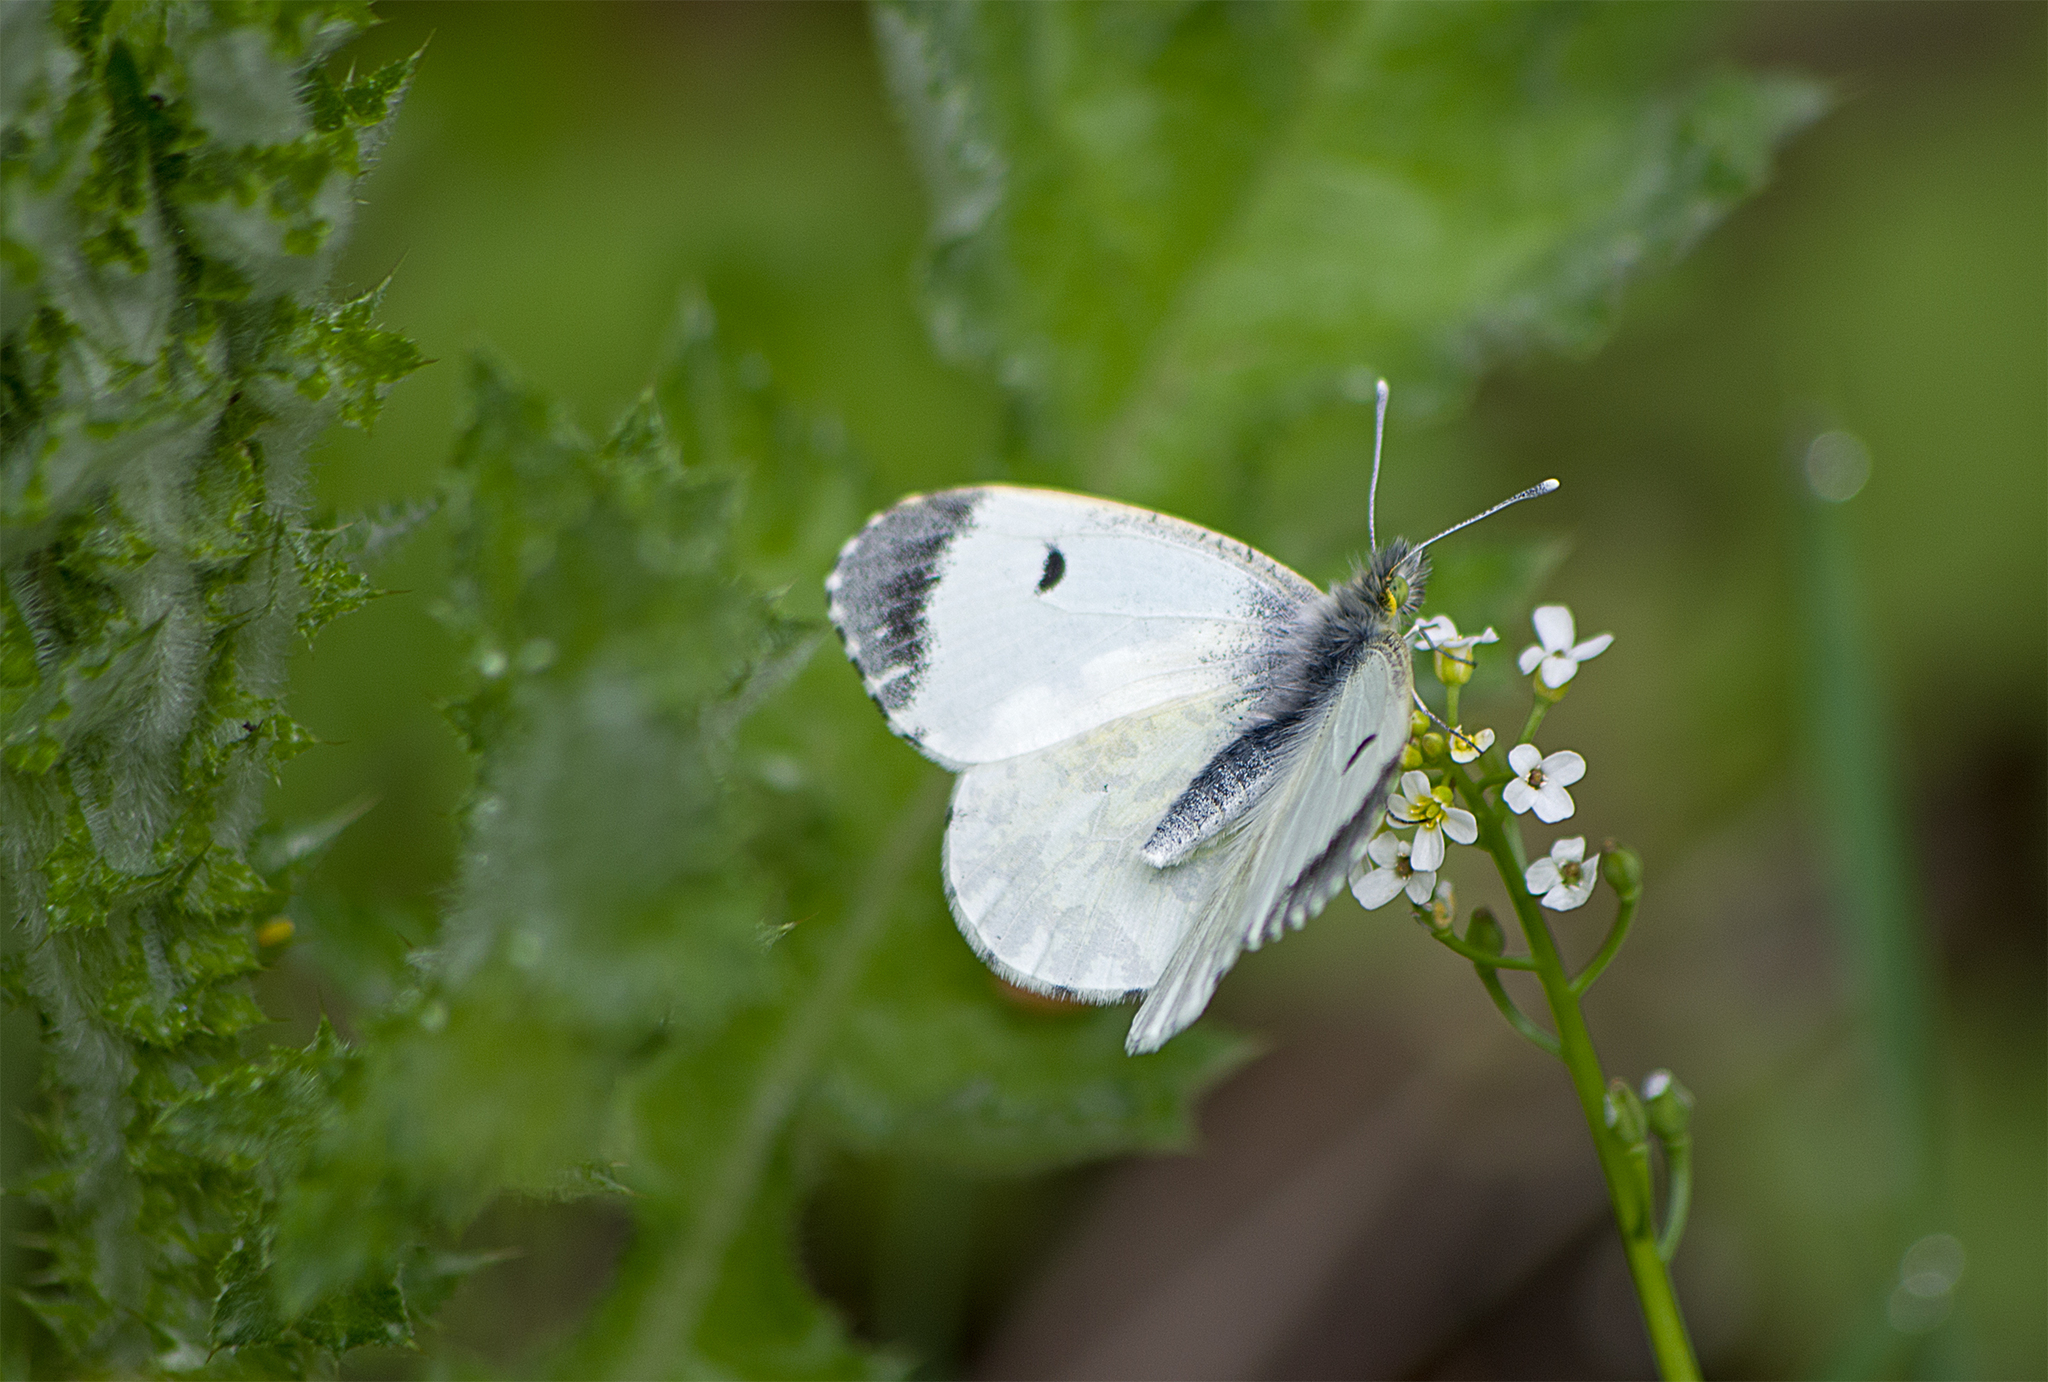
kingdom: Animalia
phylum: Arthropoda
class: Insecta
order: Lepidoptera
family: Pieridae
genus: Anthocharis
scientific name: Anthocharis cardamines
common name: Orange-tip
